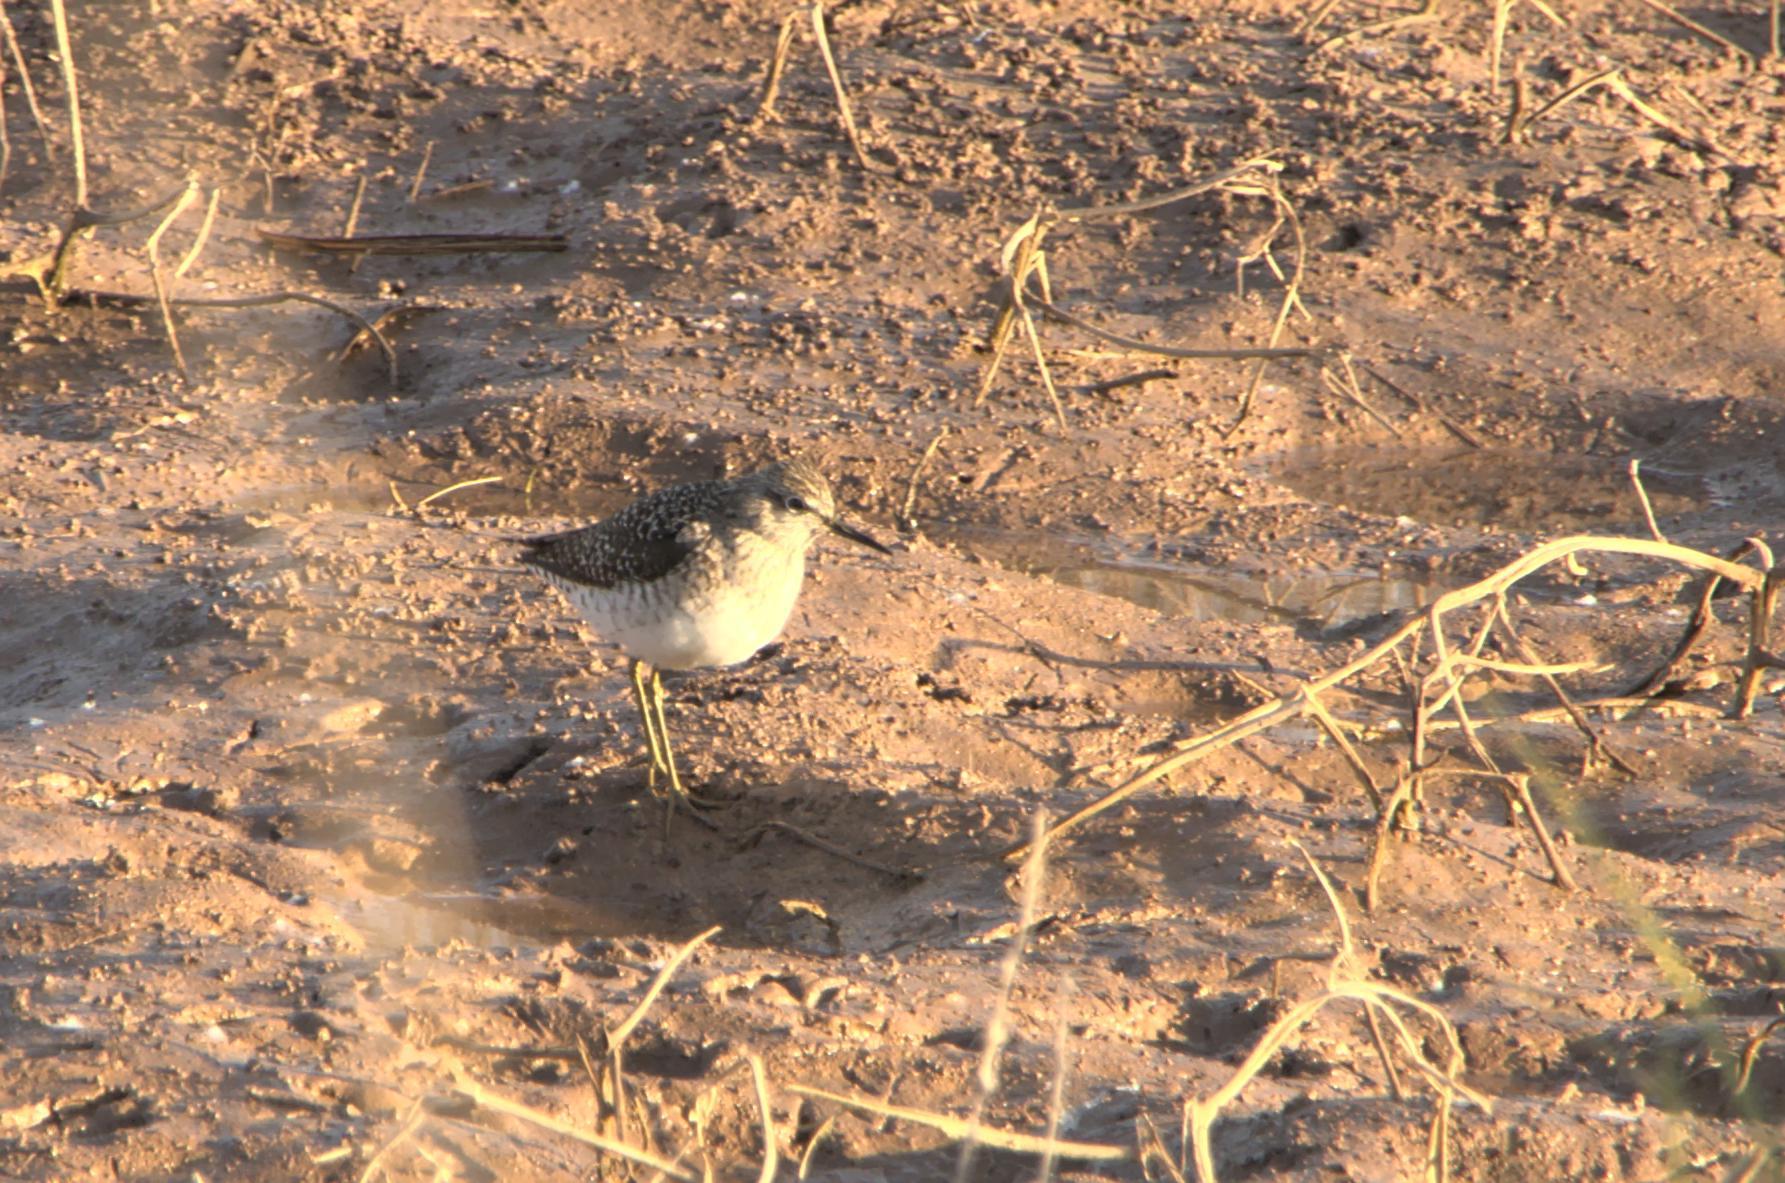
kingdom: Animalia
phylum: Chordata
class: Aves
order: Charadriiformes
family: Scolopacidae
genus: Tringa
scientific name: Tringa glareola
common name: Wood sandpiper
